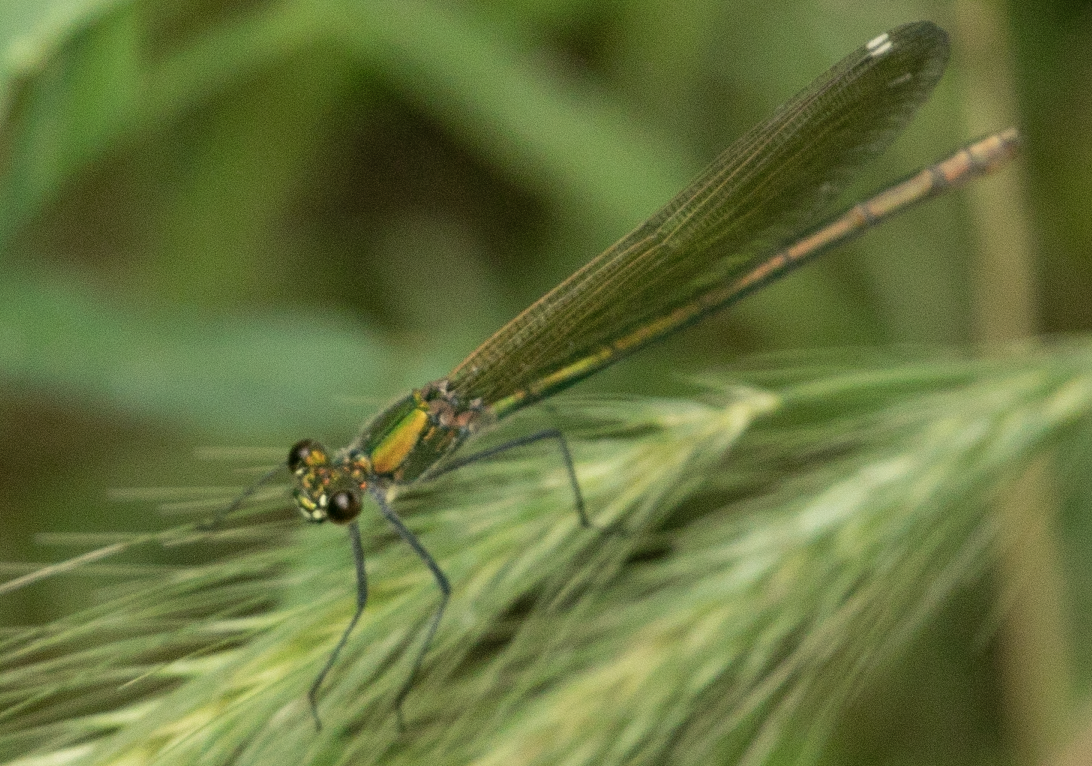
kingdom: Animalia
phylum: Arthropoda
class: Insecta
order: Odonata
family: Calopterygidae
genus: Calopteryx
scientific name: Calopteryx splendens
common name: Banded demoiselle
